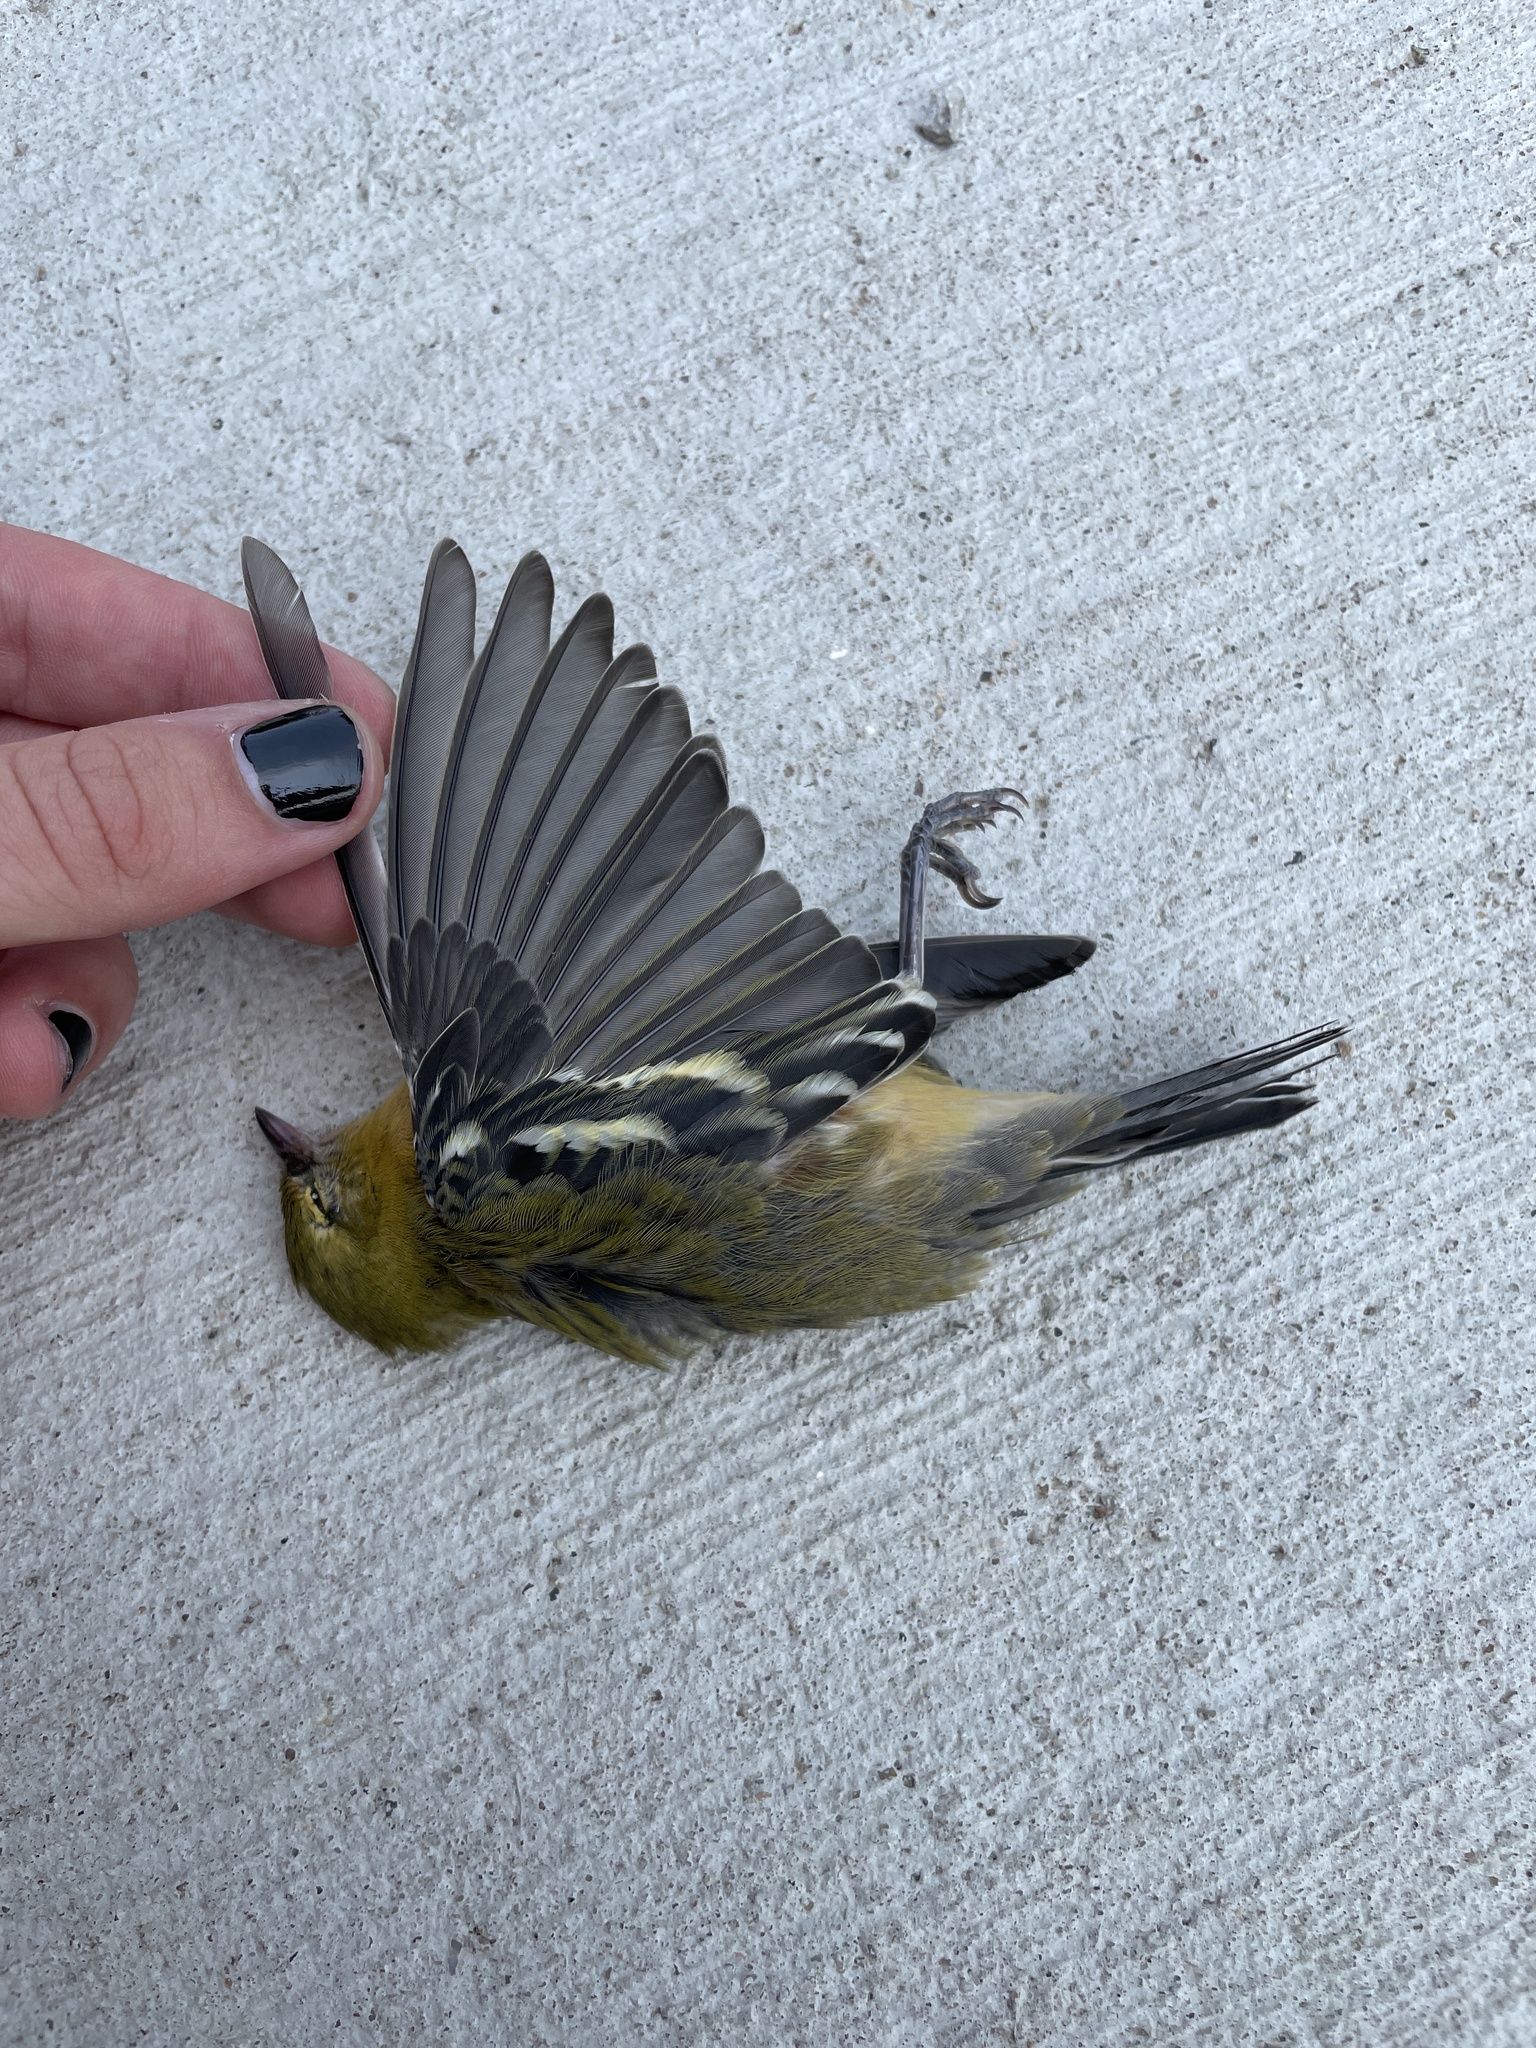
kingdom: Animalia
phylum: Chordata
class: Aves
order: Passeriformes
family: Parulidae
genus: Setophaga
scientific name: Setophaga castanea
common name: Bay-breasted warbler
